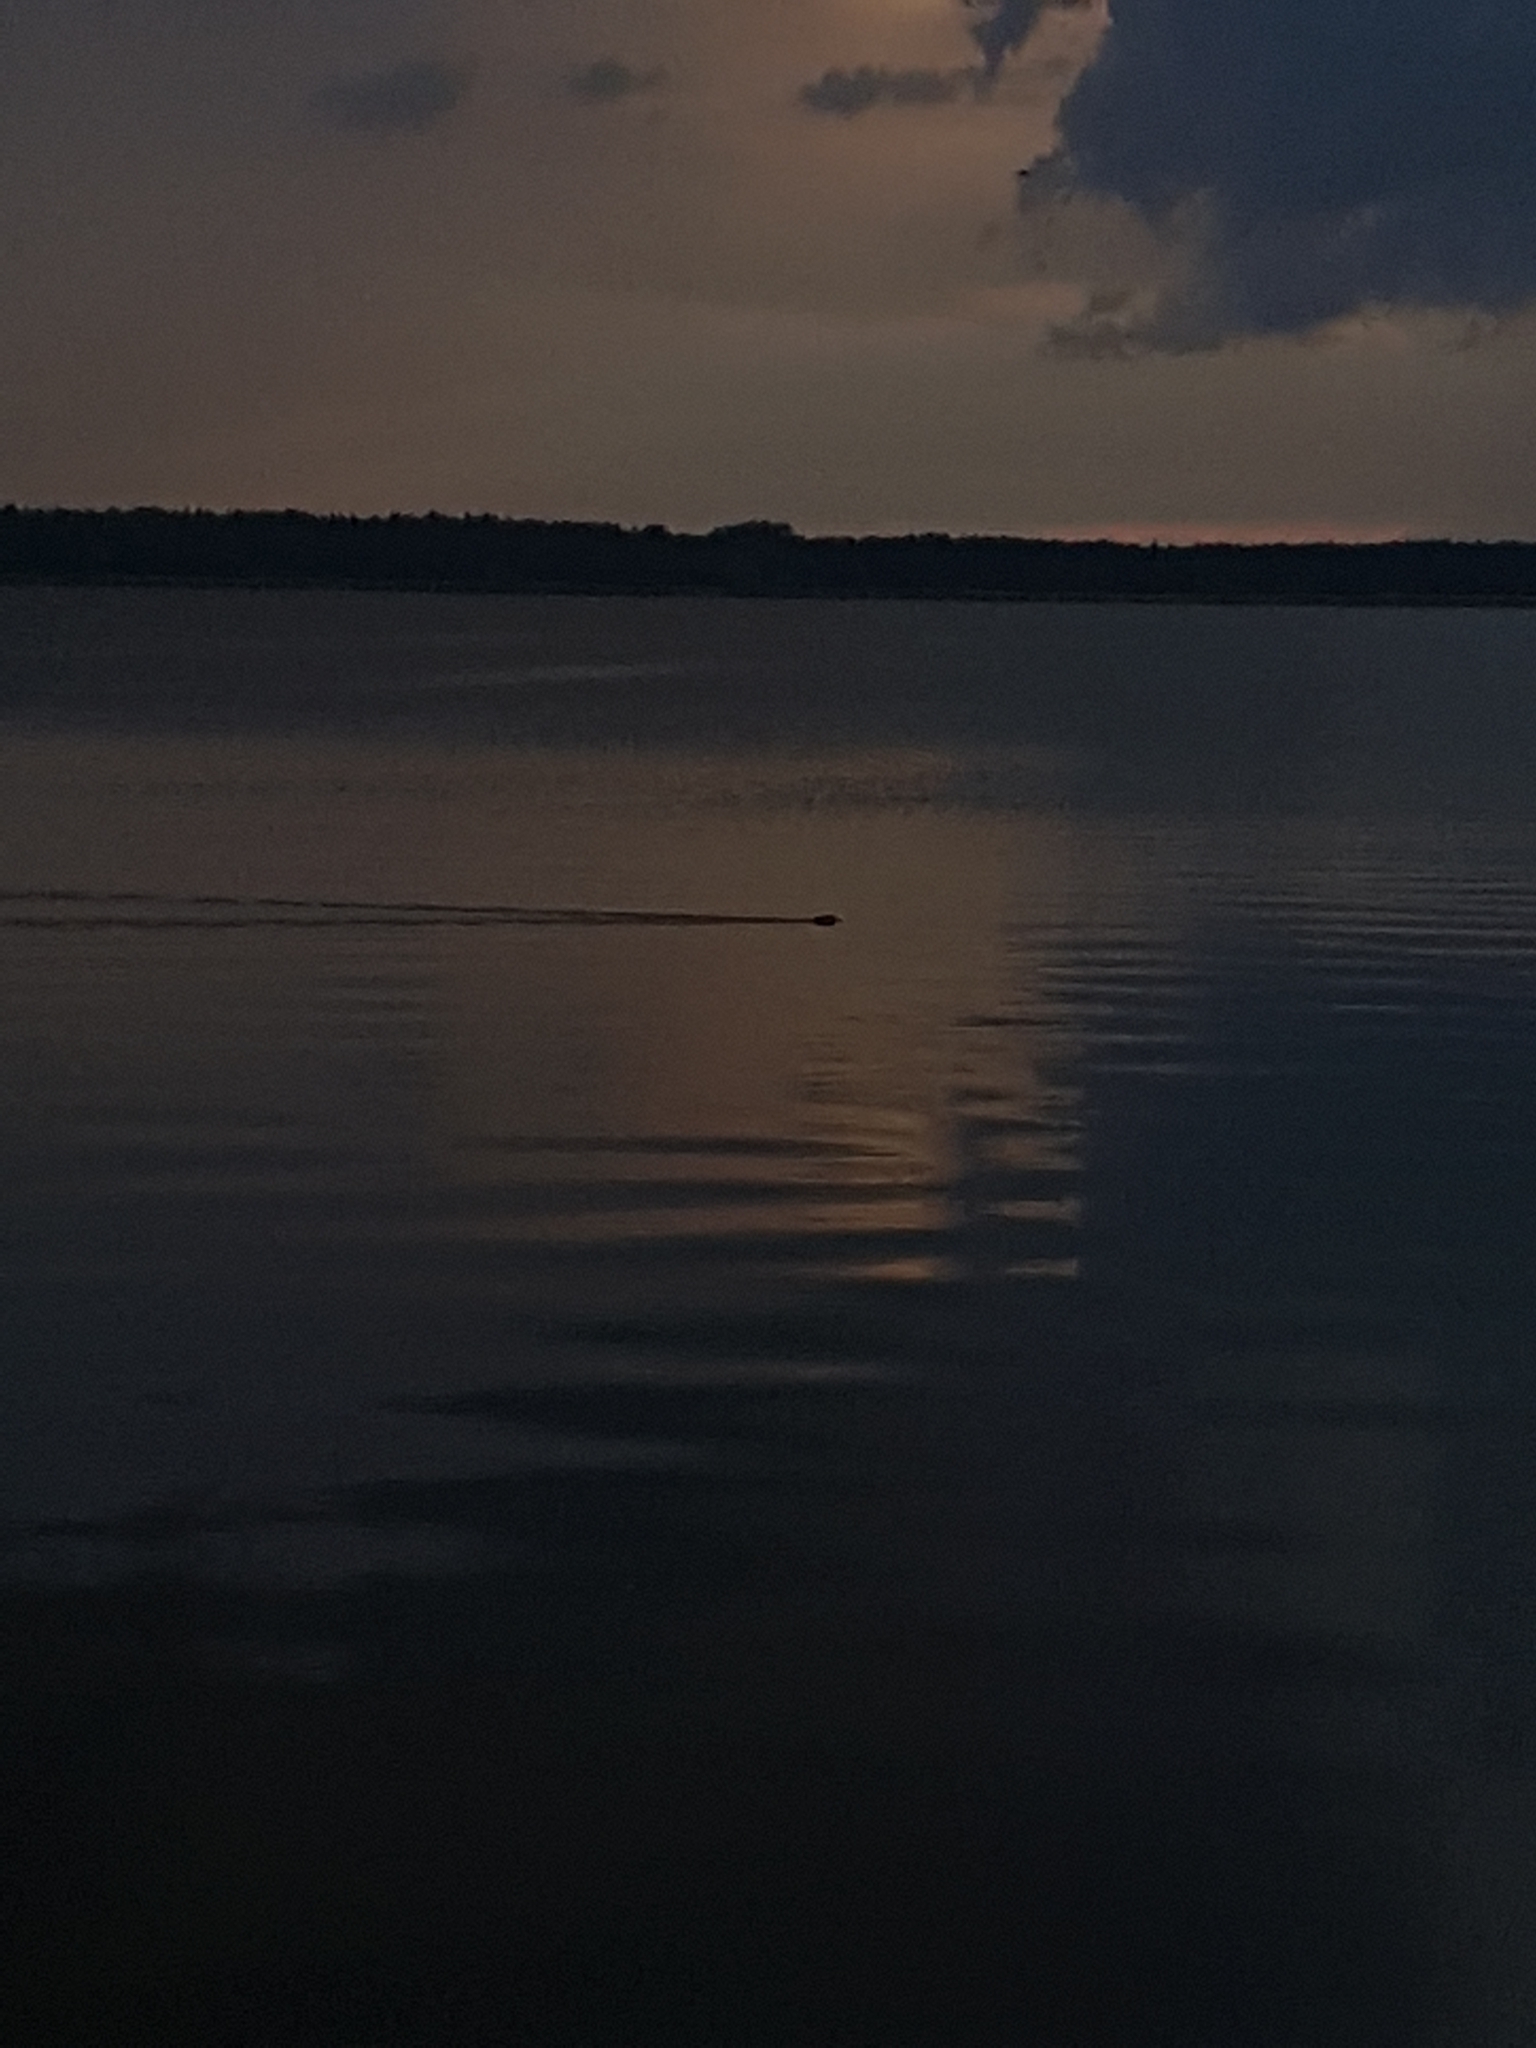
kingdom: Animalia
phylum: Chordata
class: Mammalia
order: Carnivora
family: Mustelidae
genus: Lutra
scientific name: Lutra lutra
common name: European otter
